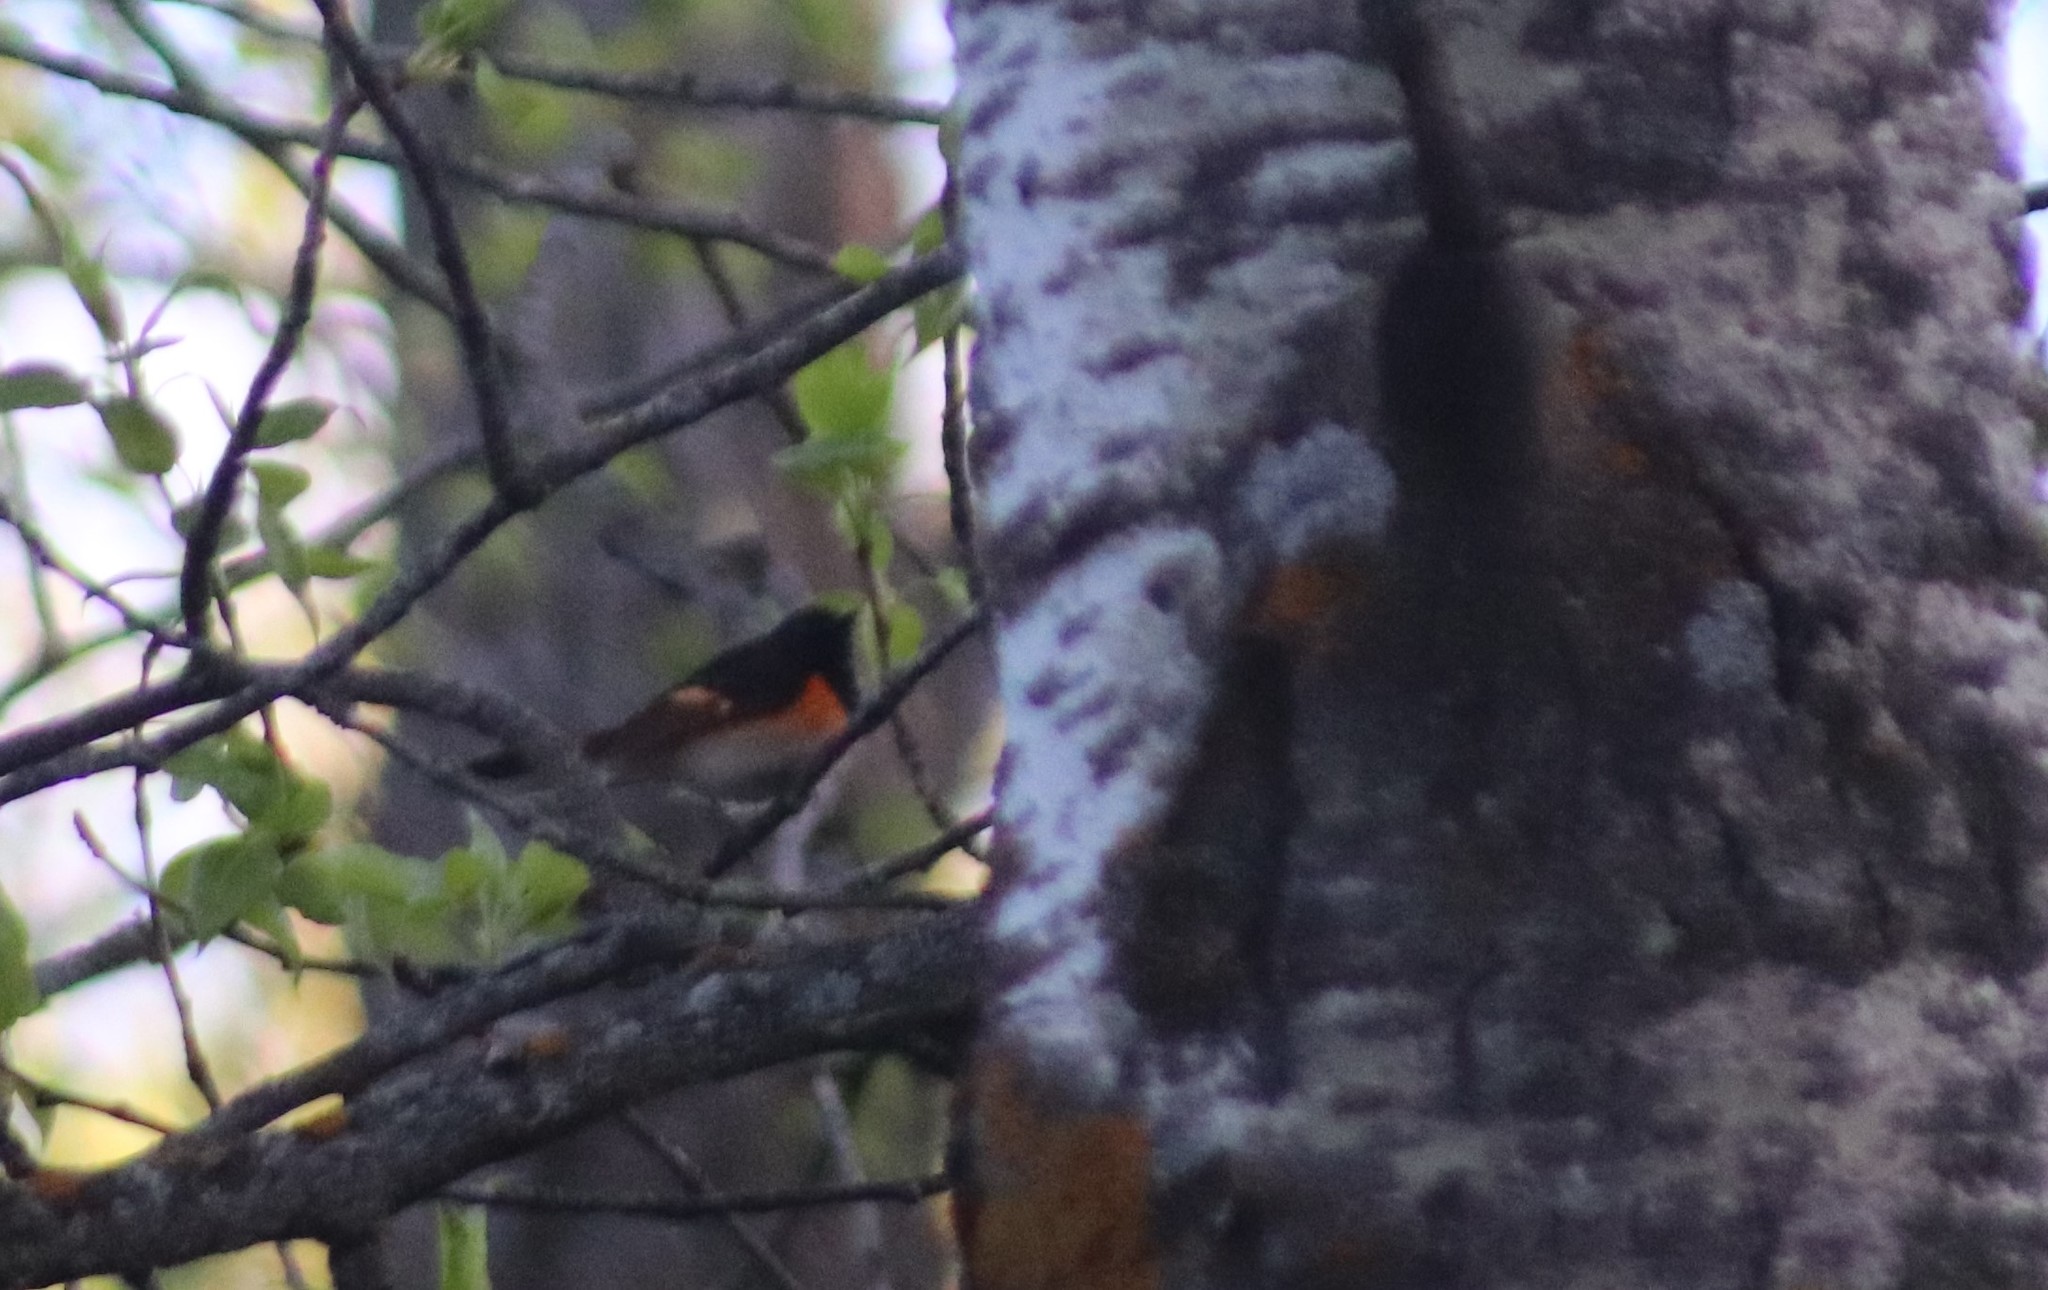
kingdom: Animalia
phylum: Chordata
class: Aves
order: Passeriformes
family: Parulidae
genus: Setophaga
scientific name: Setophaga ruticilla
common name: American redstart
